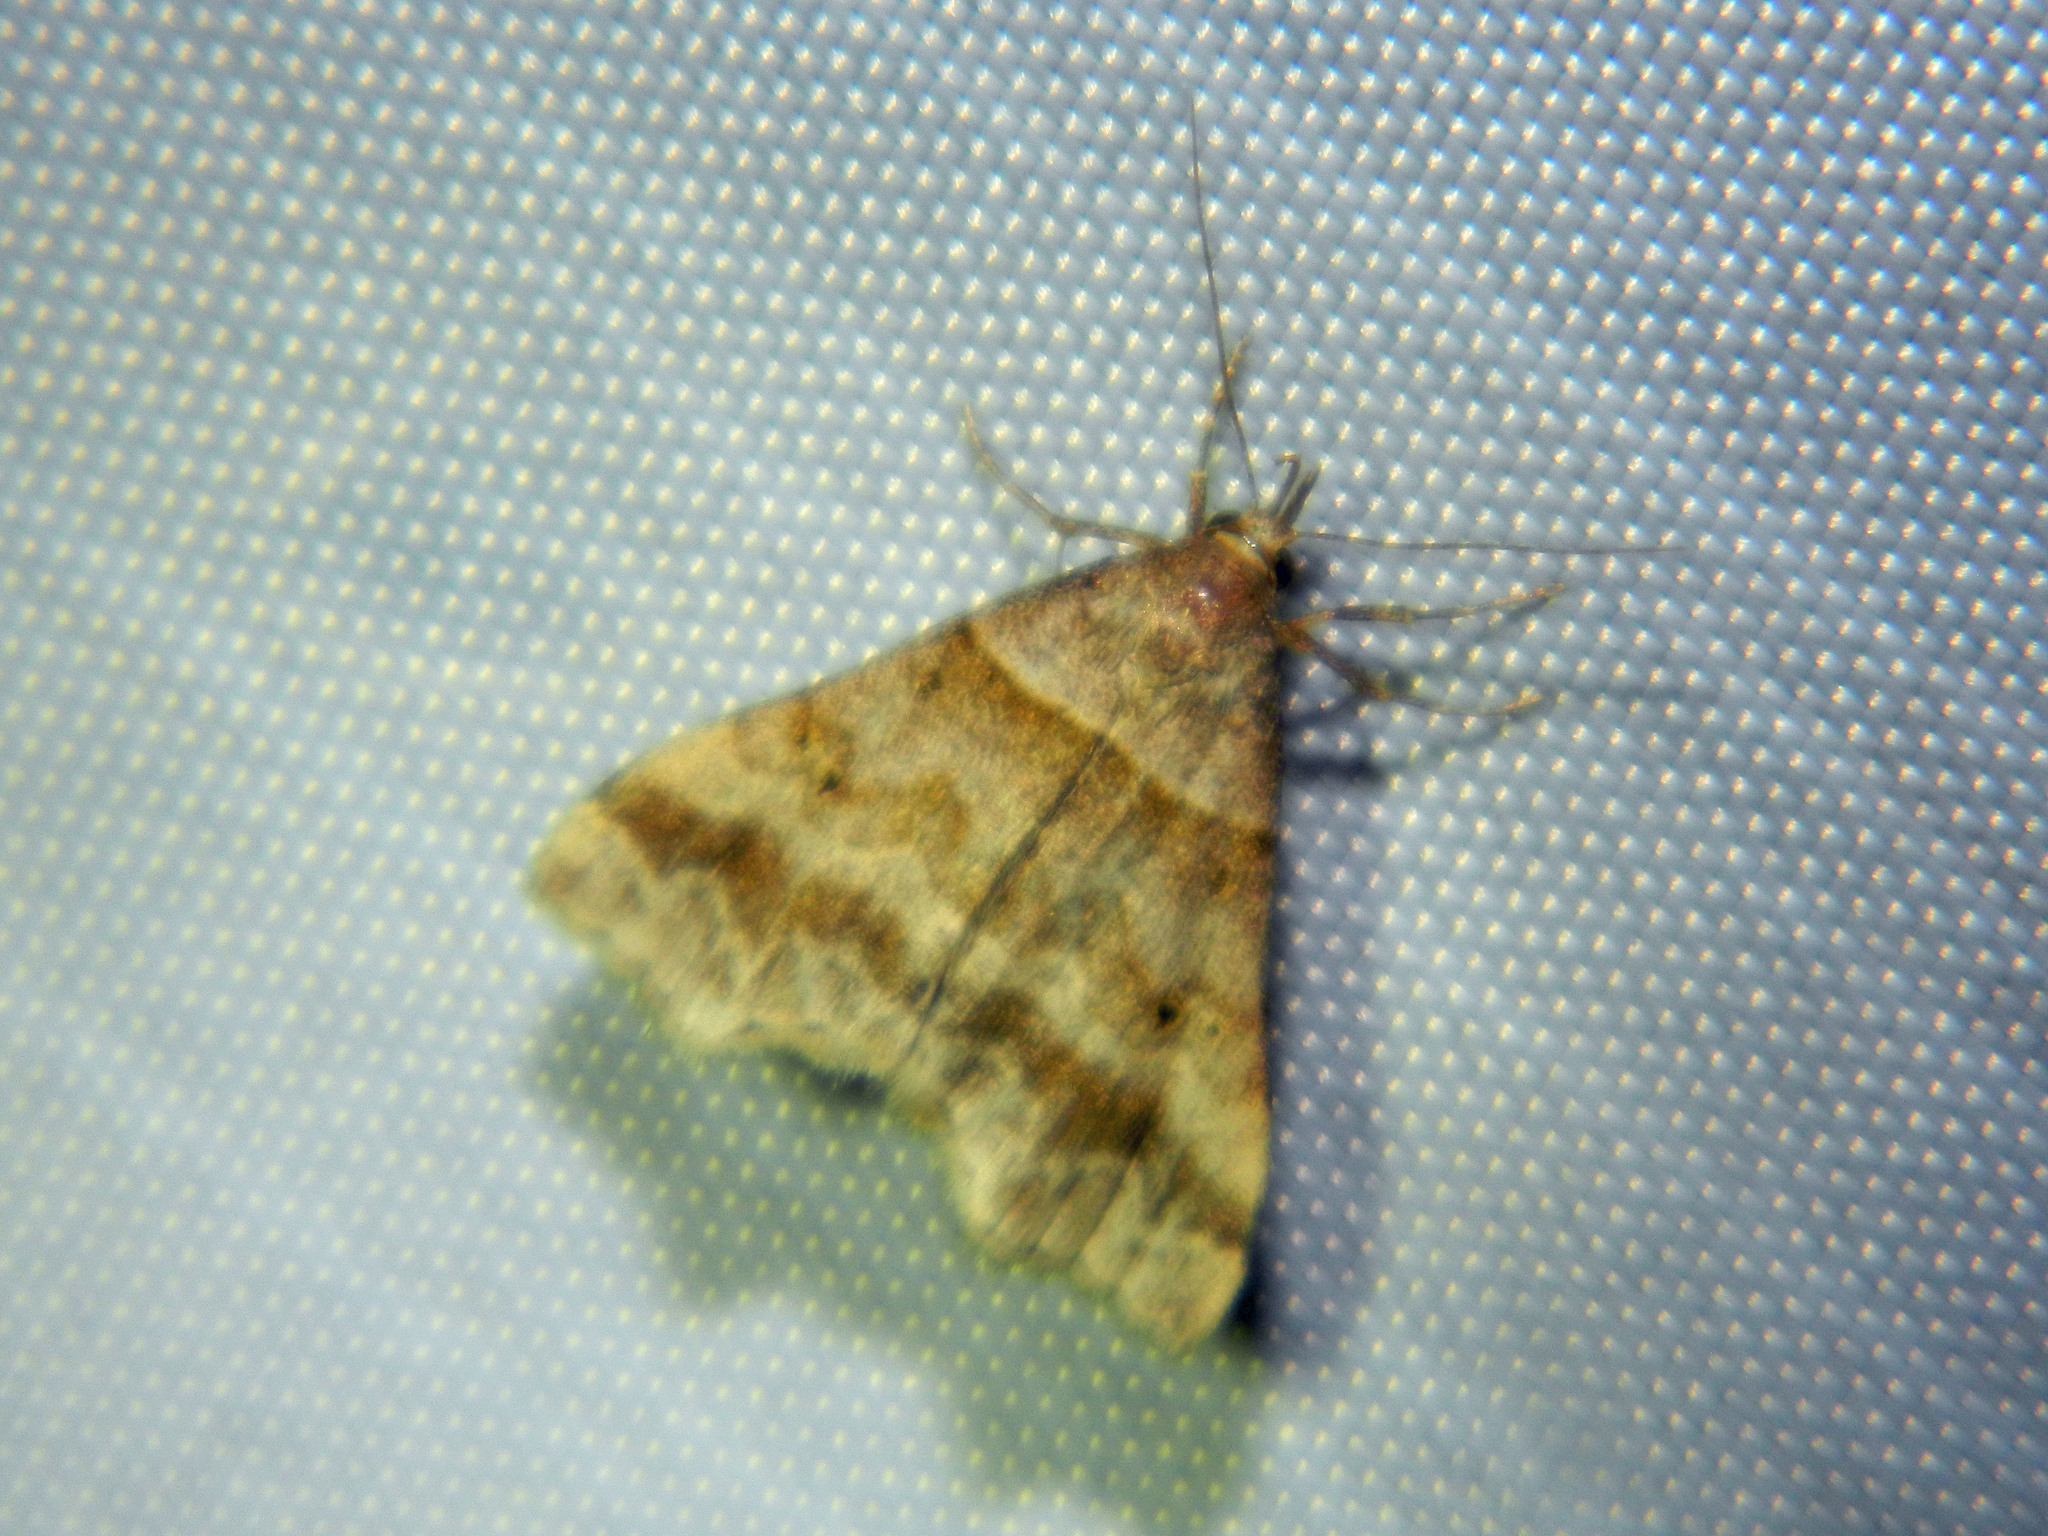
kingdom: Animalia
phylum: Arthropoda
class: Insecta
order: Lepidoptera
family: Erebidae
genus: Phaeolita
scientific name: Phaeolita pyramusalis
